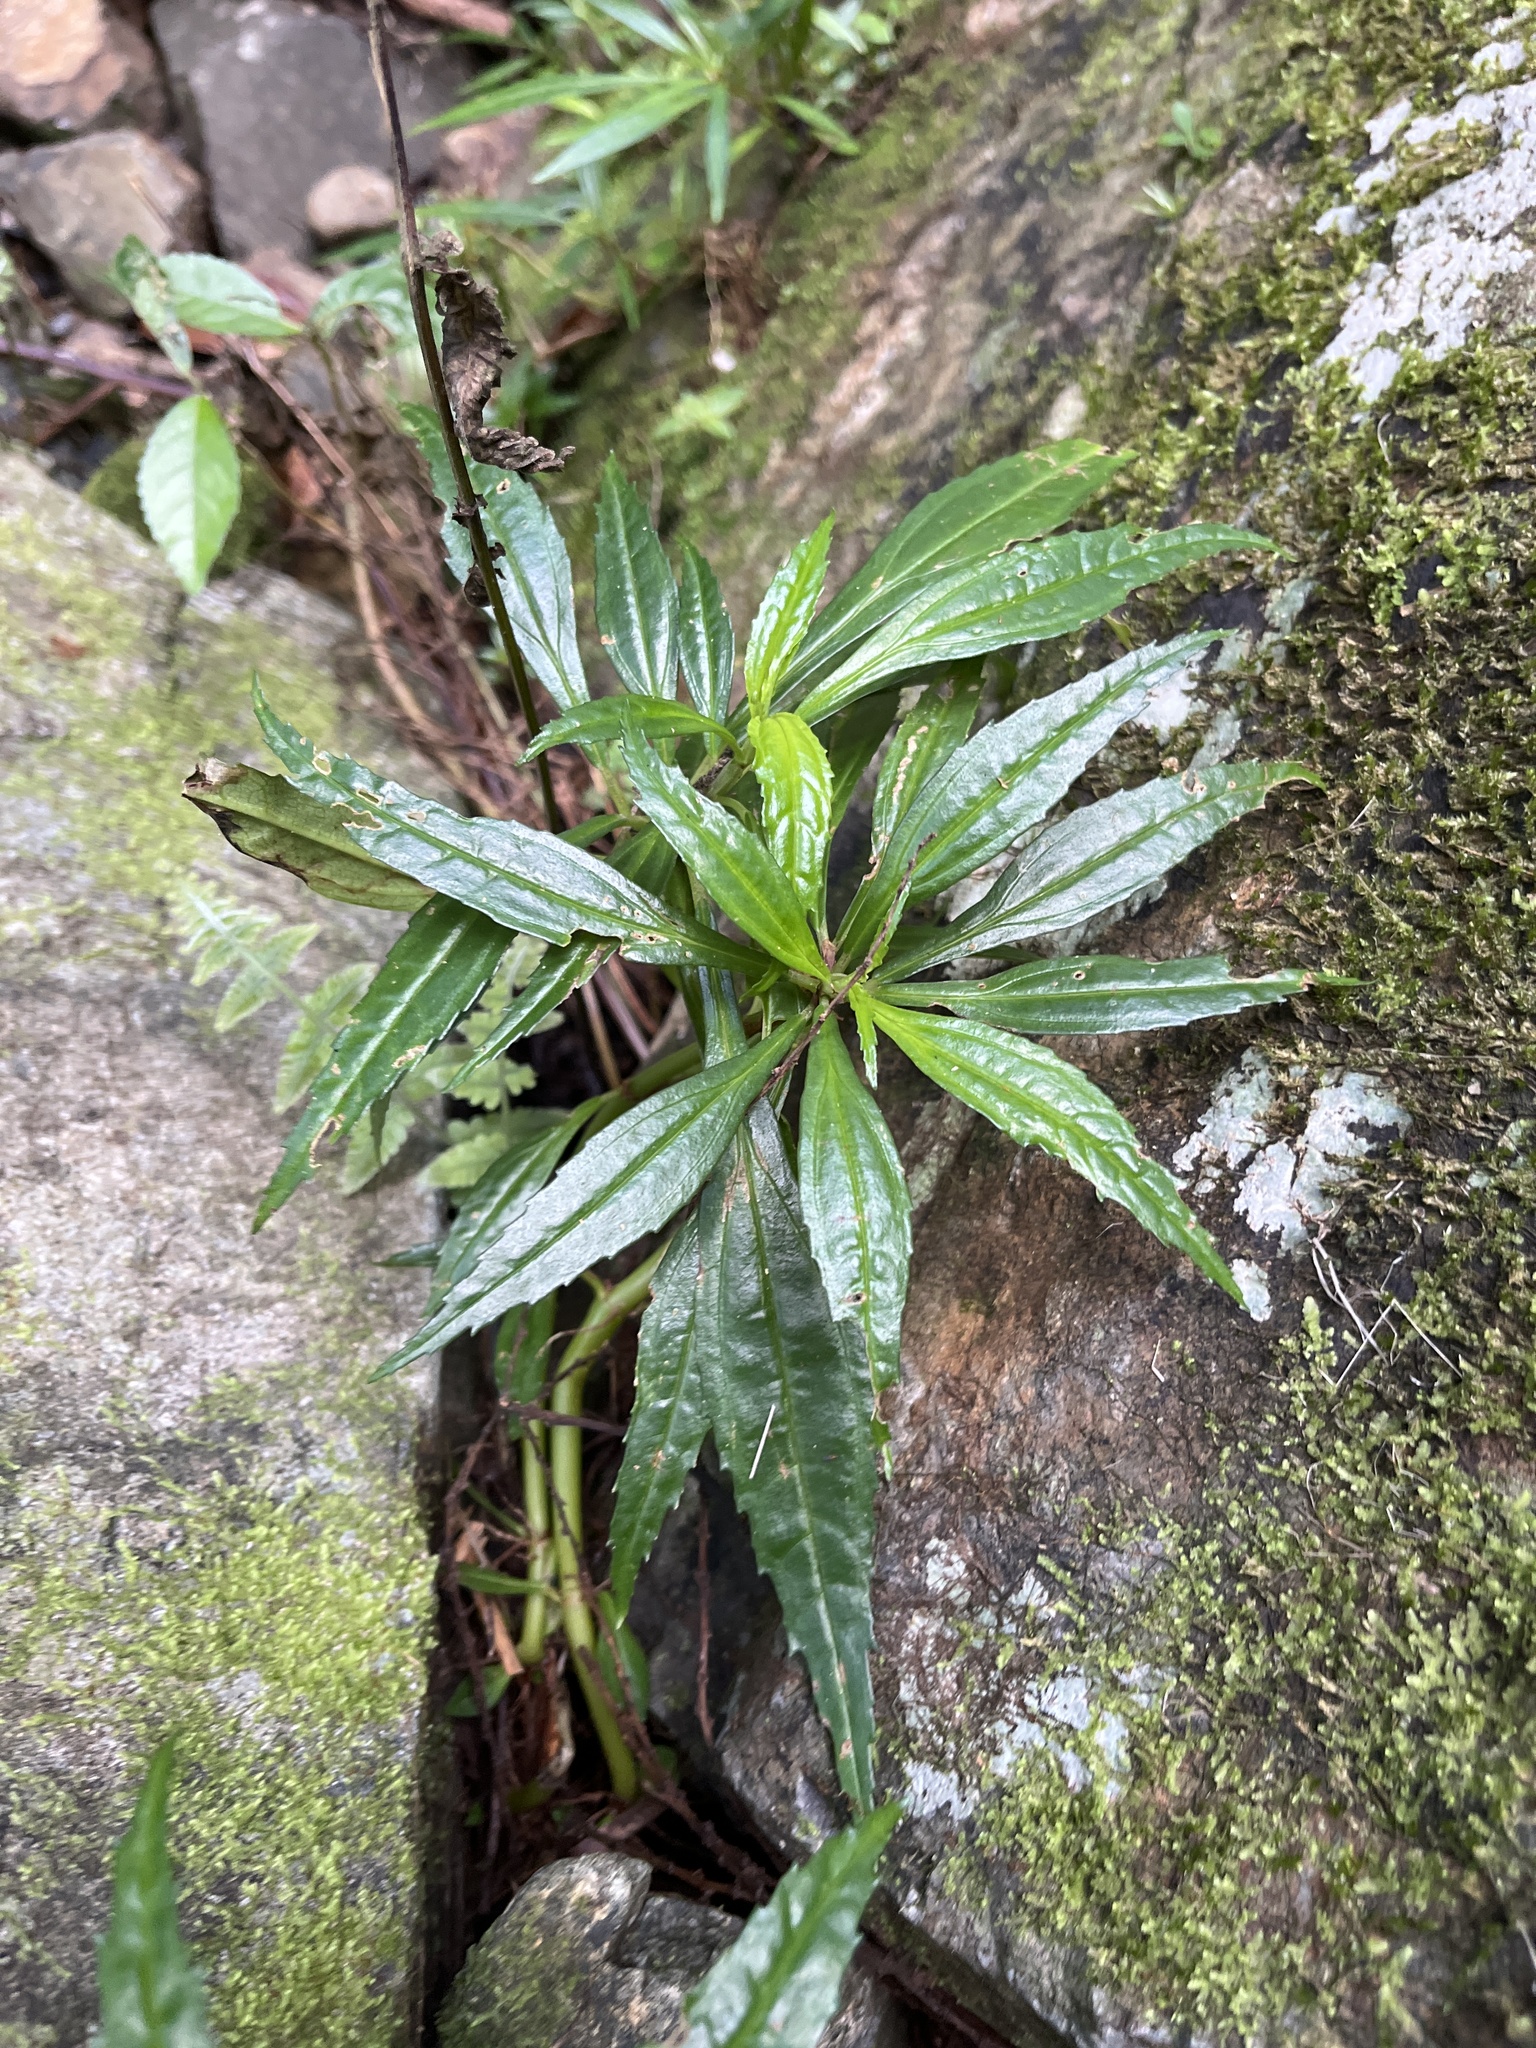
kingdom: Plantae
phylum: Tracheophyta
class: Magnoliopsida
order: Rosales
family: Urticaceae
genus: Pilea
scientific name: Pilea semidentata
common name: Cliffside clearweed
